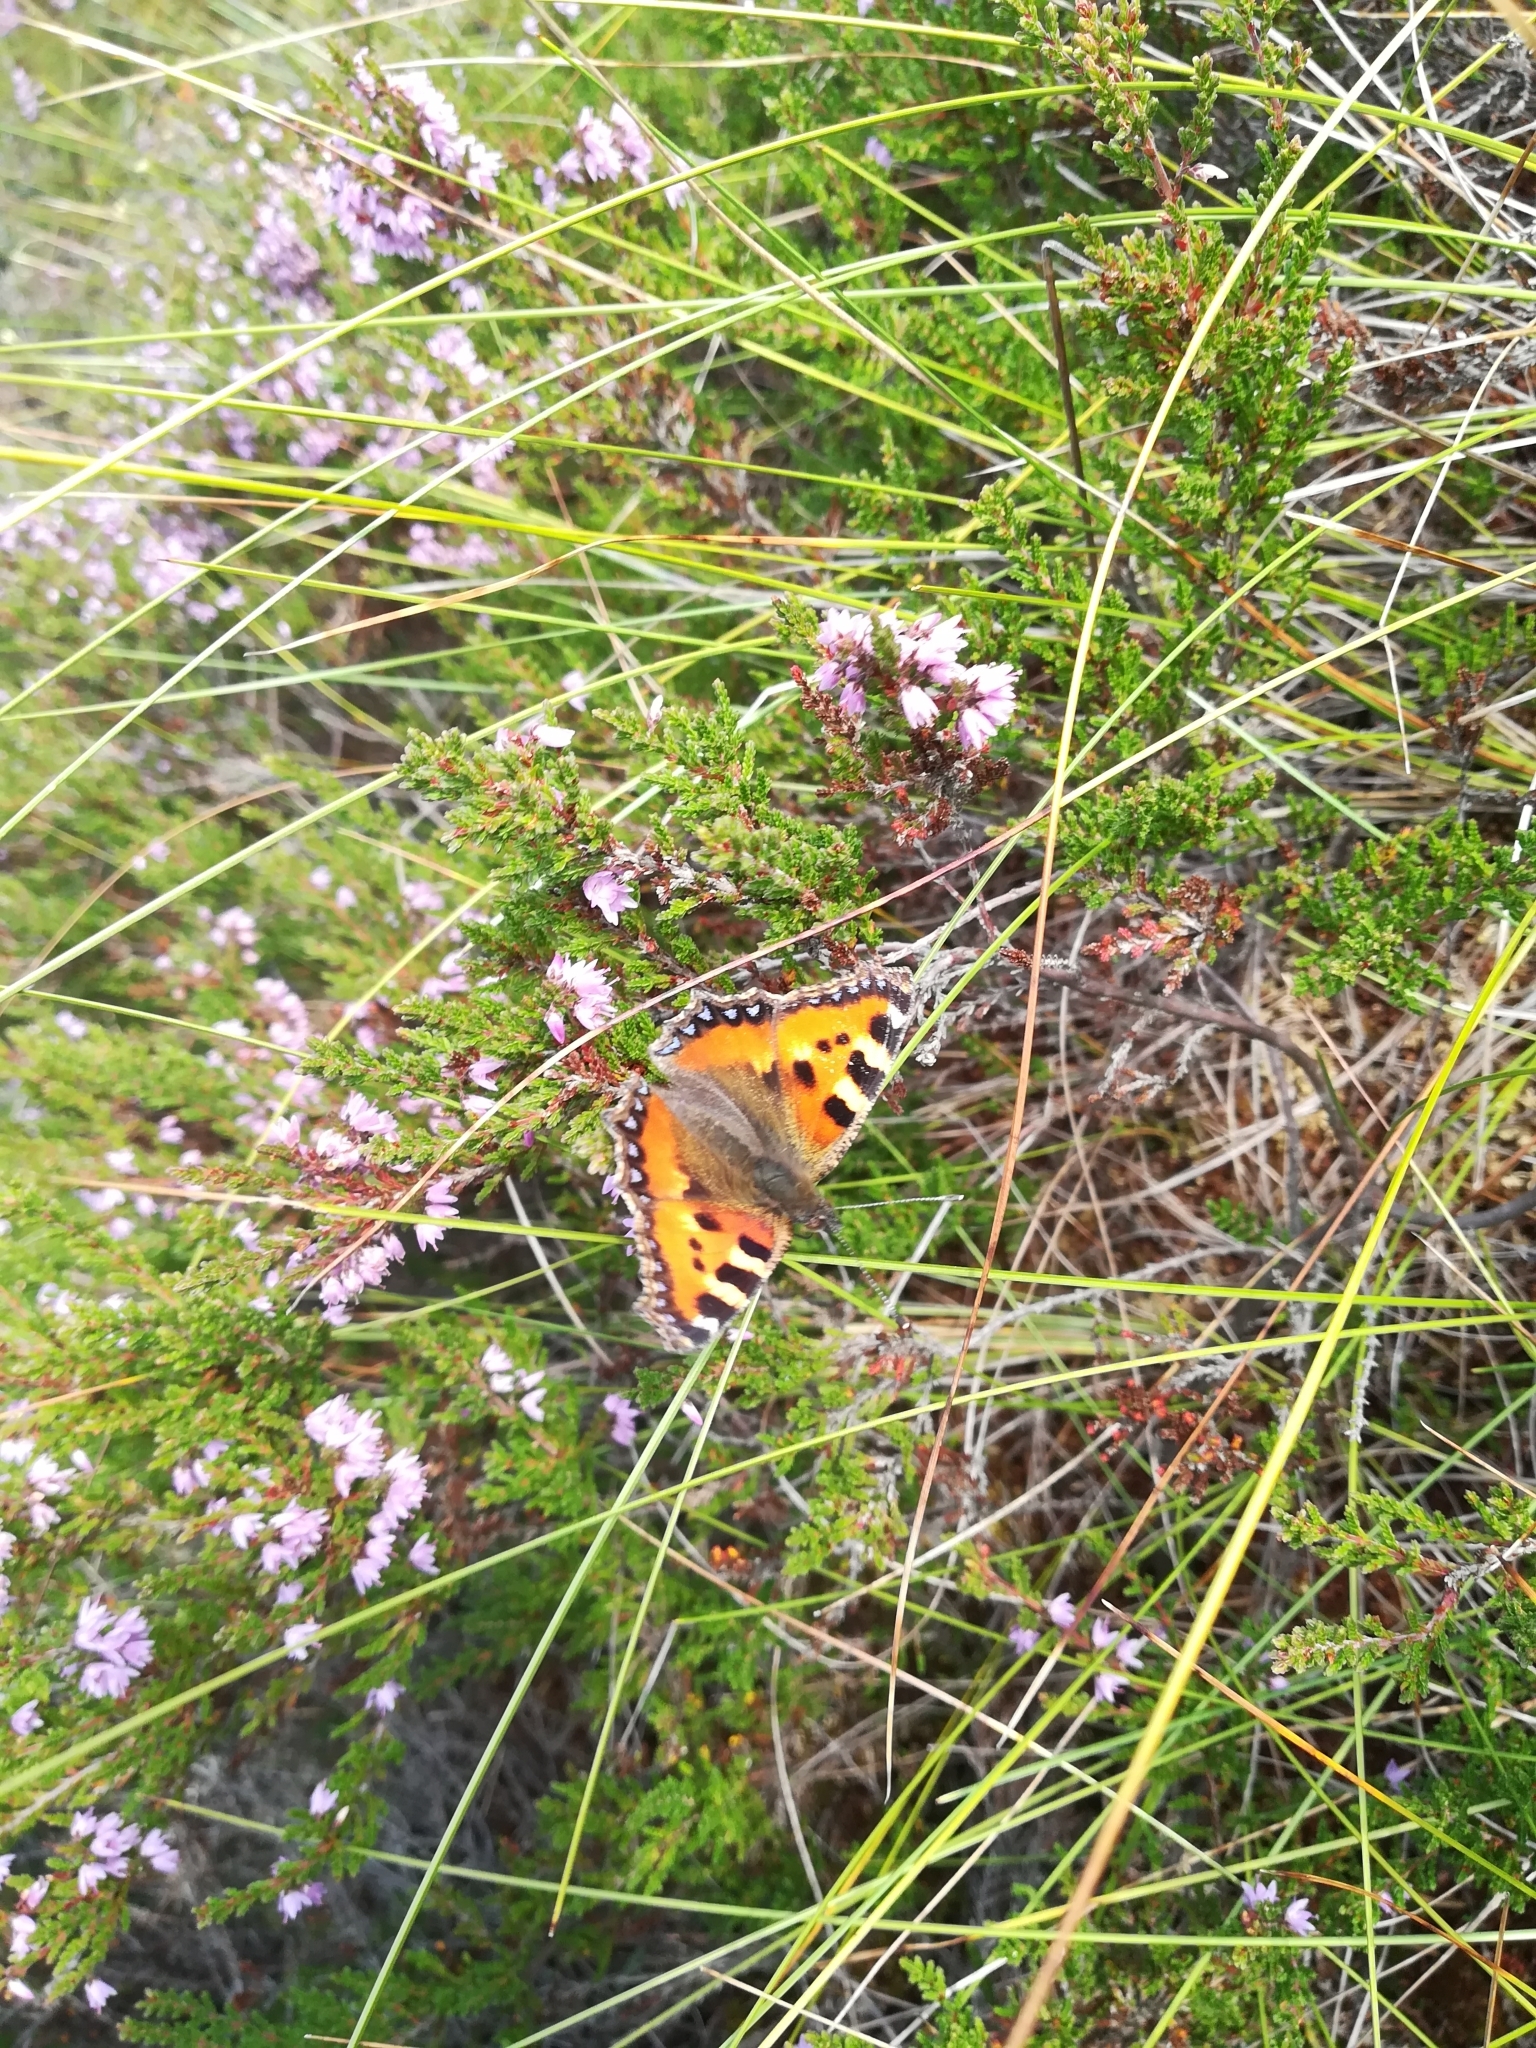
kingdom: Animalia
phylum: Arthropoda
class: Insecta
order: Lepidoptera
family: Nymphalidae
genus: Aglais
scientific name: Aglais urticae
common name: Small tortoiseshell
